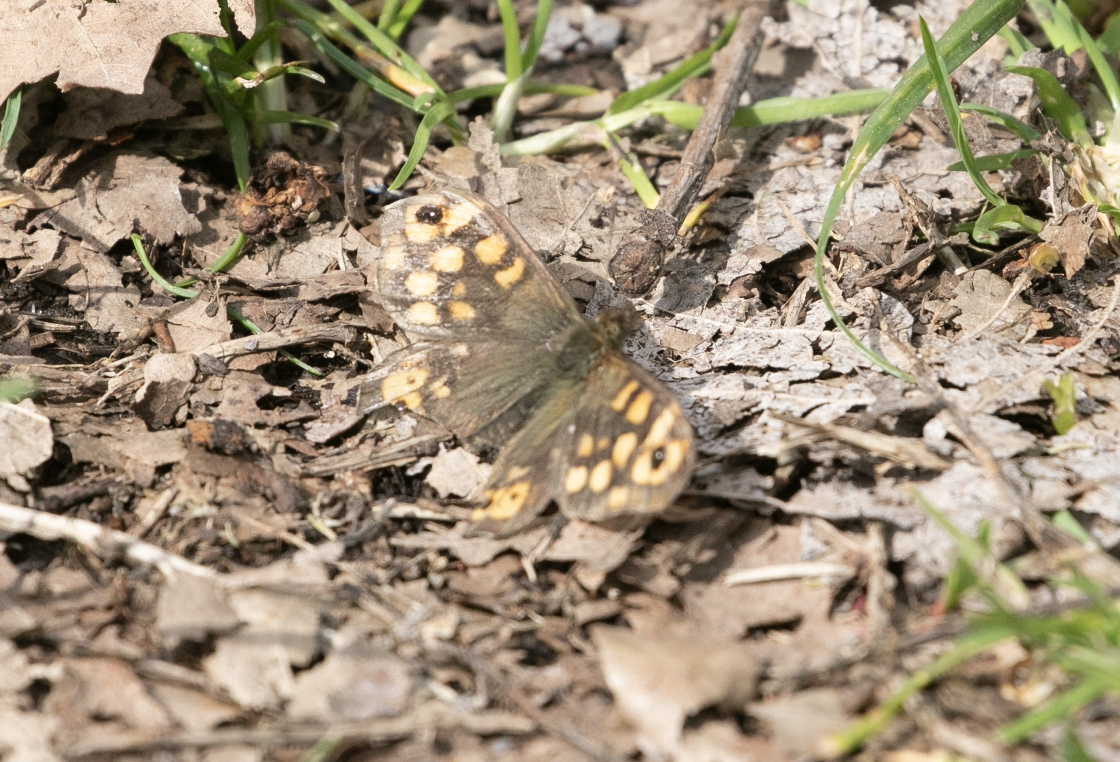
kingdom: Animalia
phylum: Arthropoda
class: Insecta
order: Lepidoptera
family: Nymphalidae
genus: Pararge
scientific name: Pararge aegeria
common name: Speckled wood
